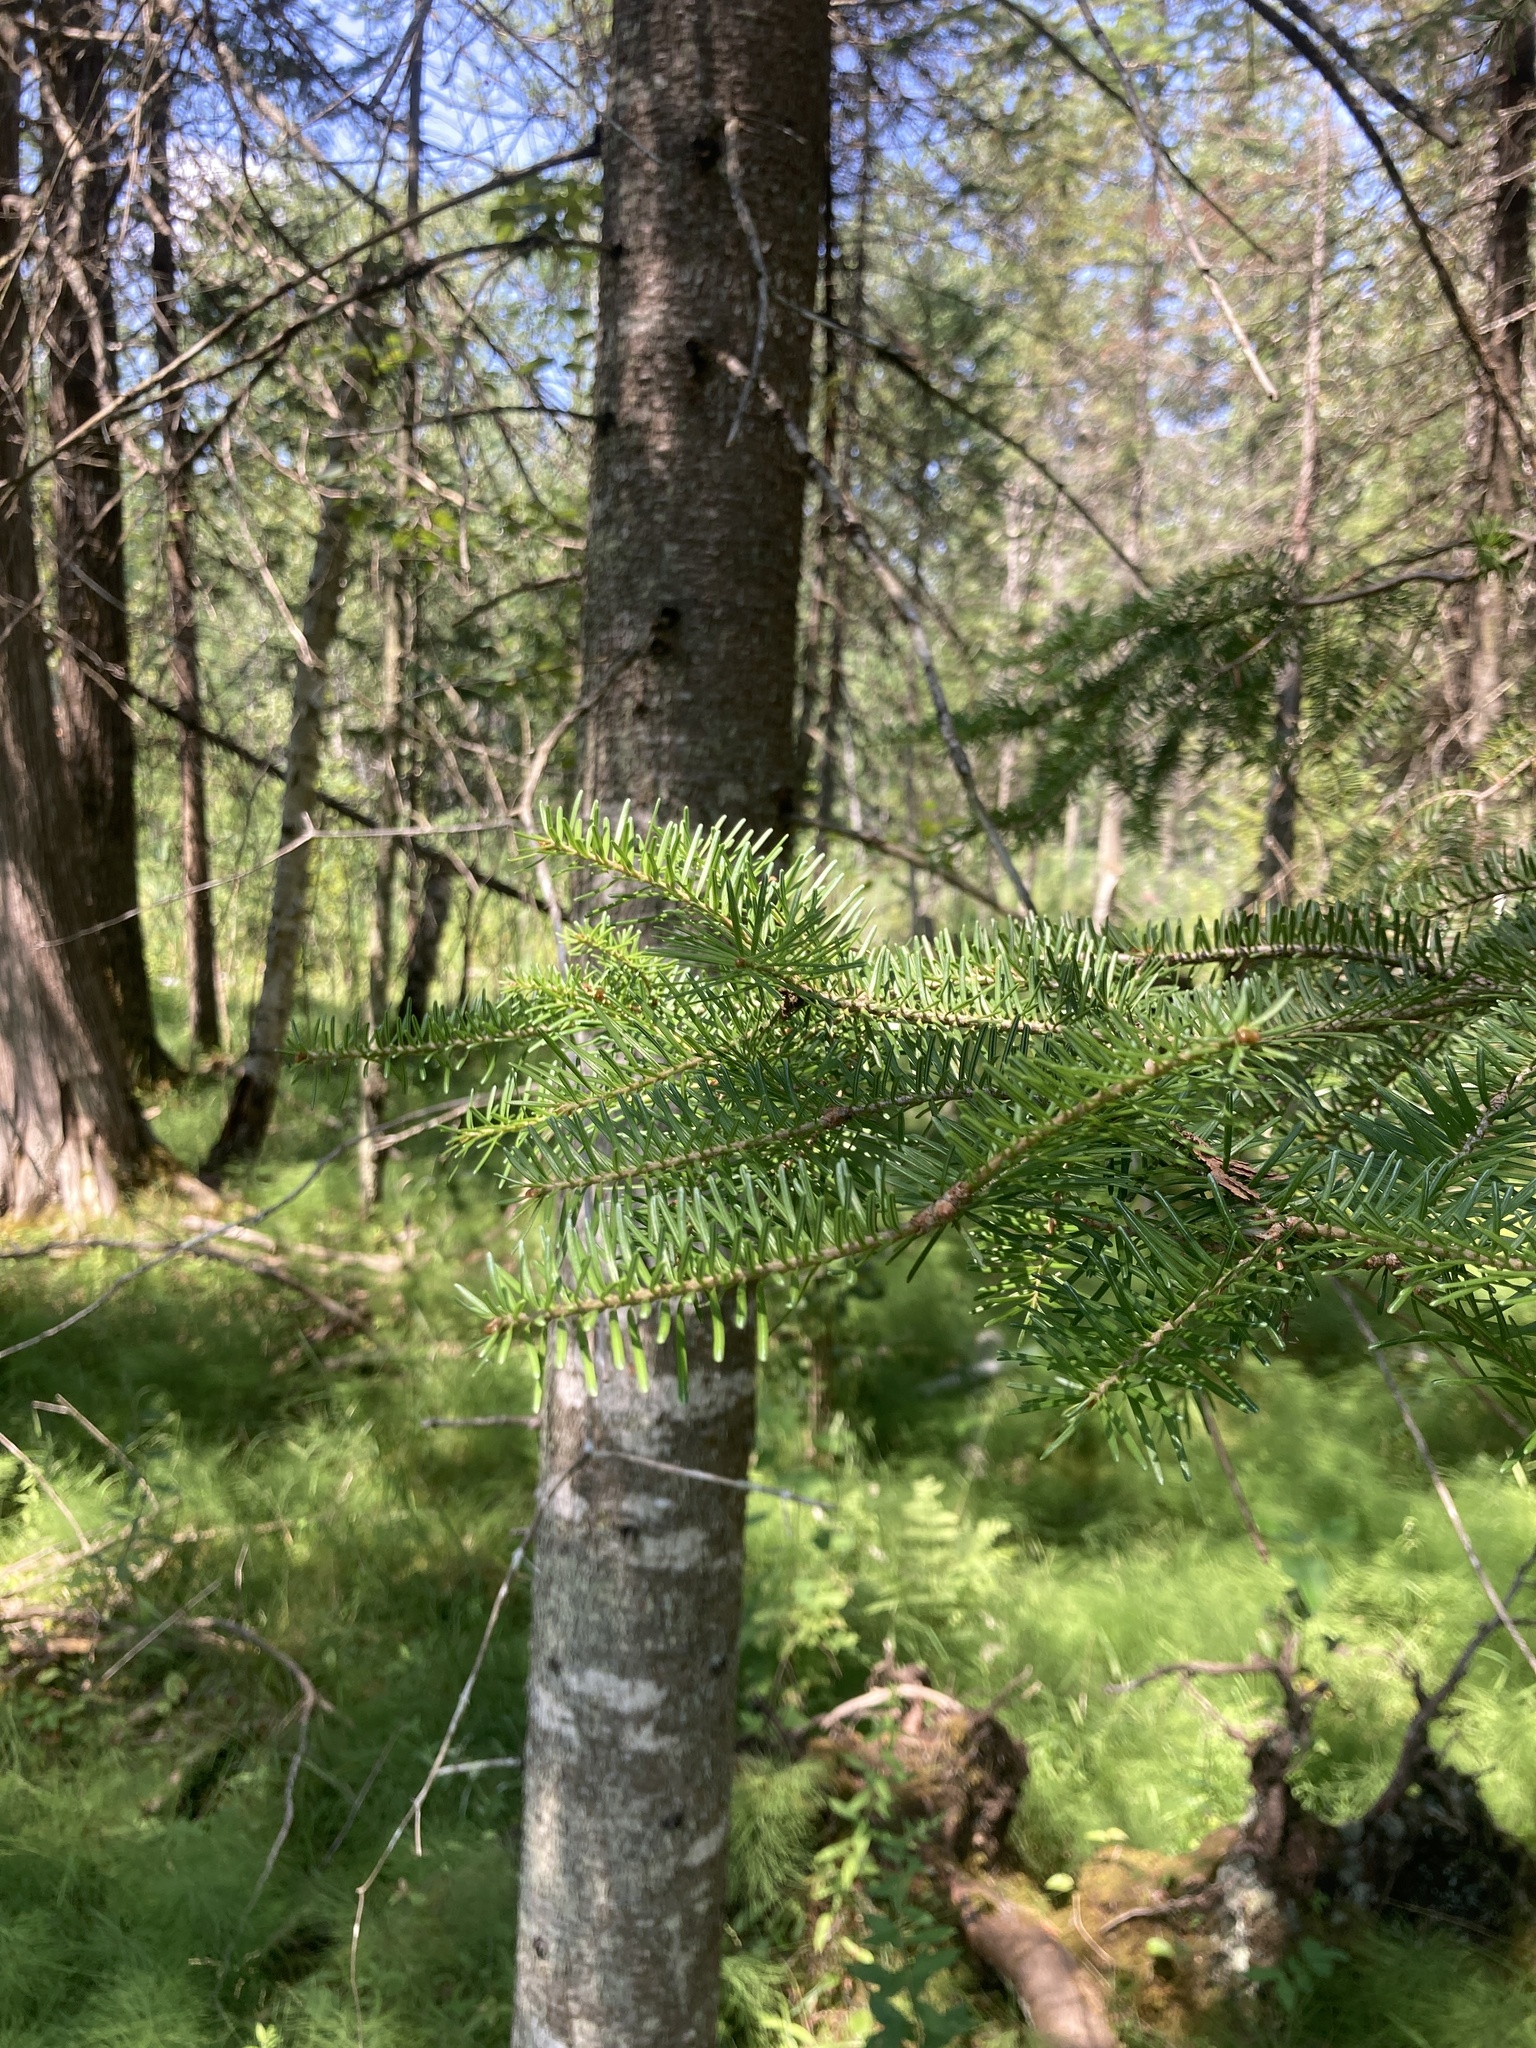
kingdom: Plantae
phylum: Tracheophyta
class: Pinopsida
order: Pinales
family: Pinaceae
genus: Abies
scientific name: Abies balsamea
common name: Balsam fir
